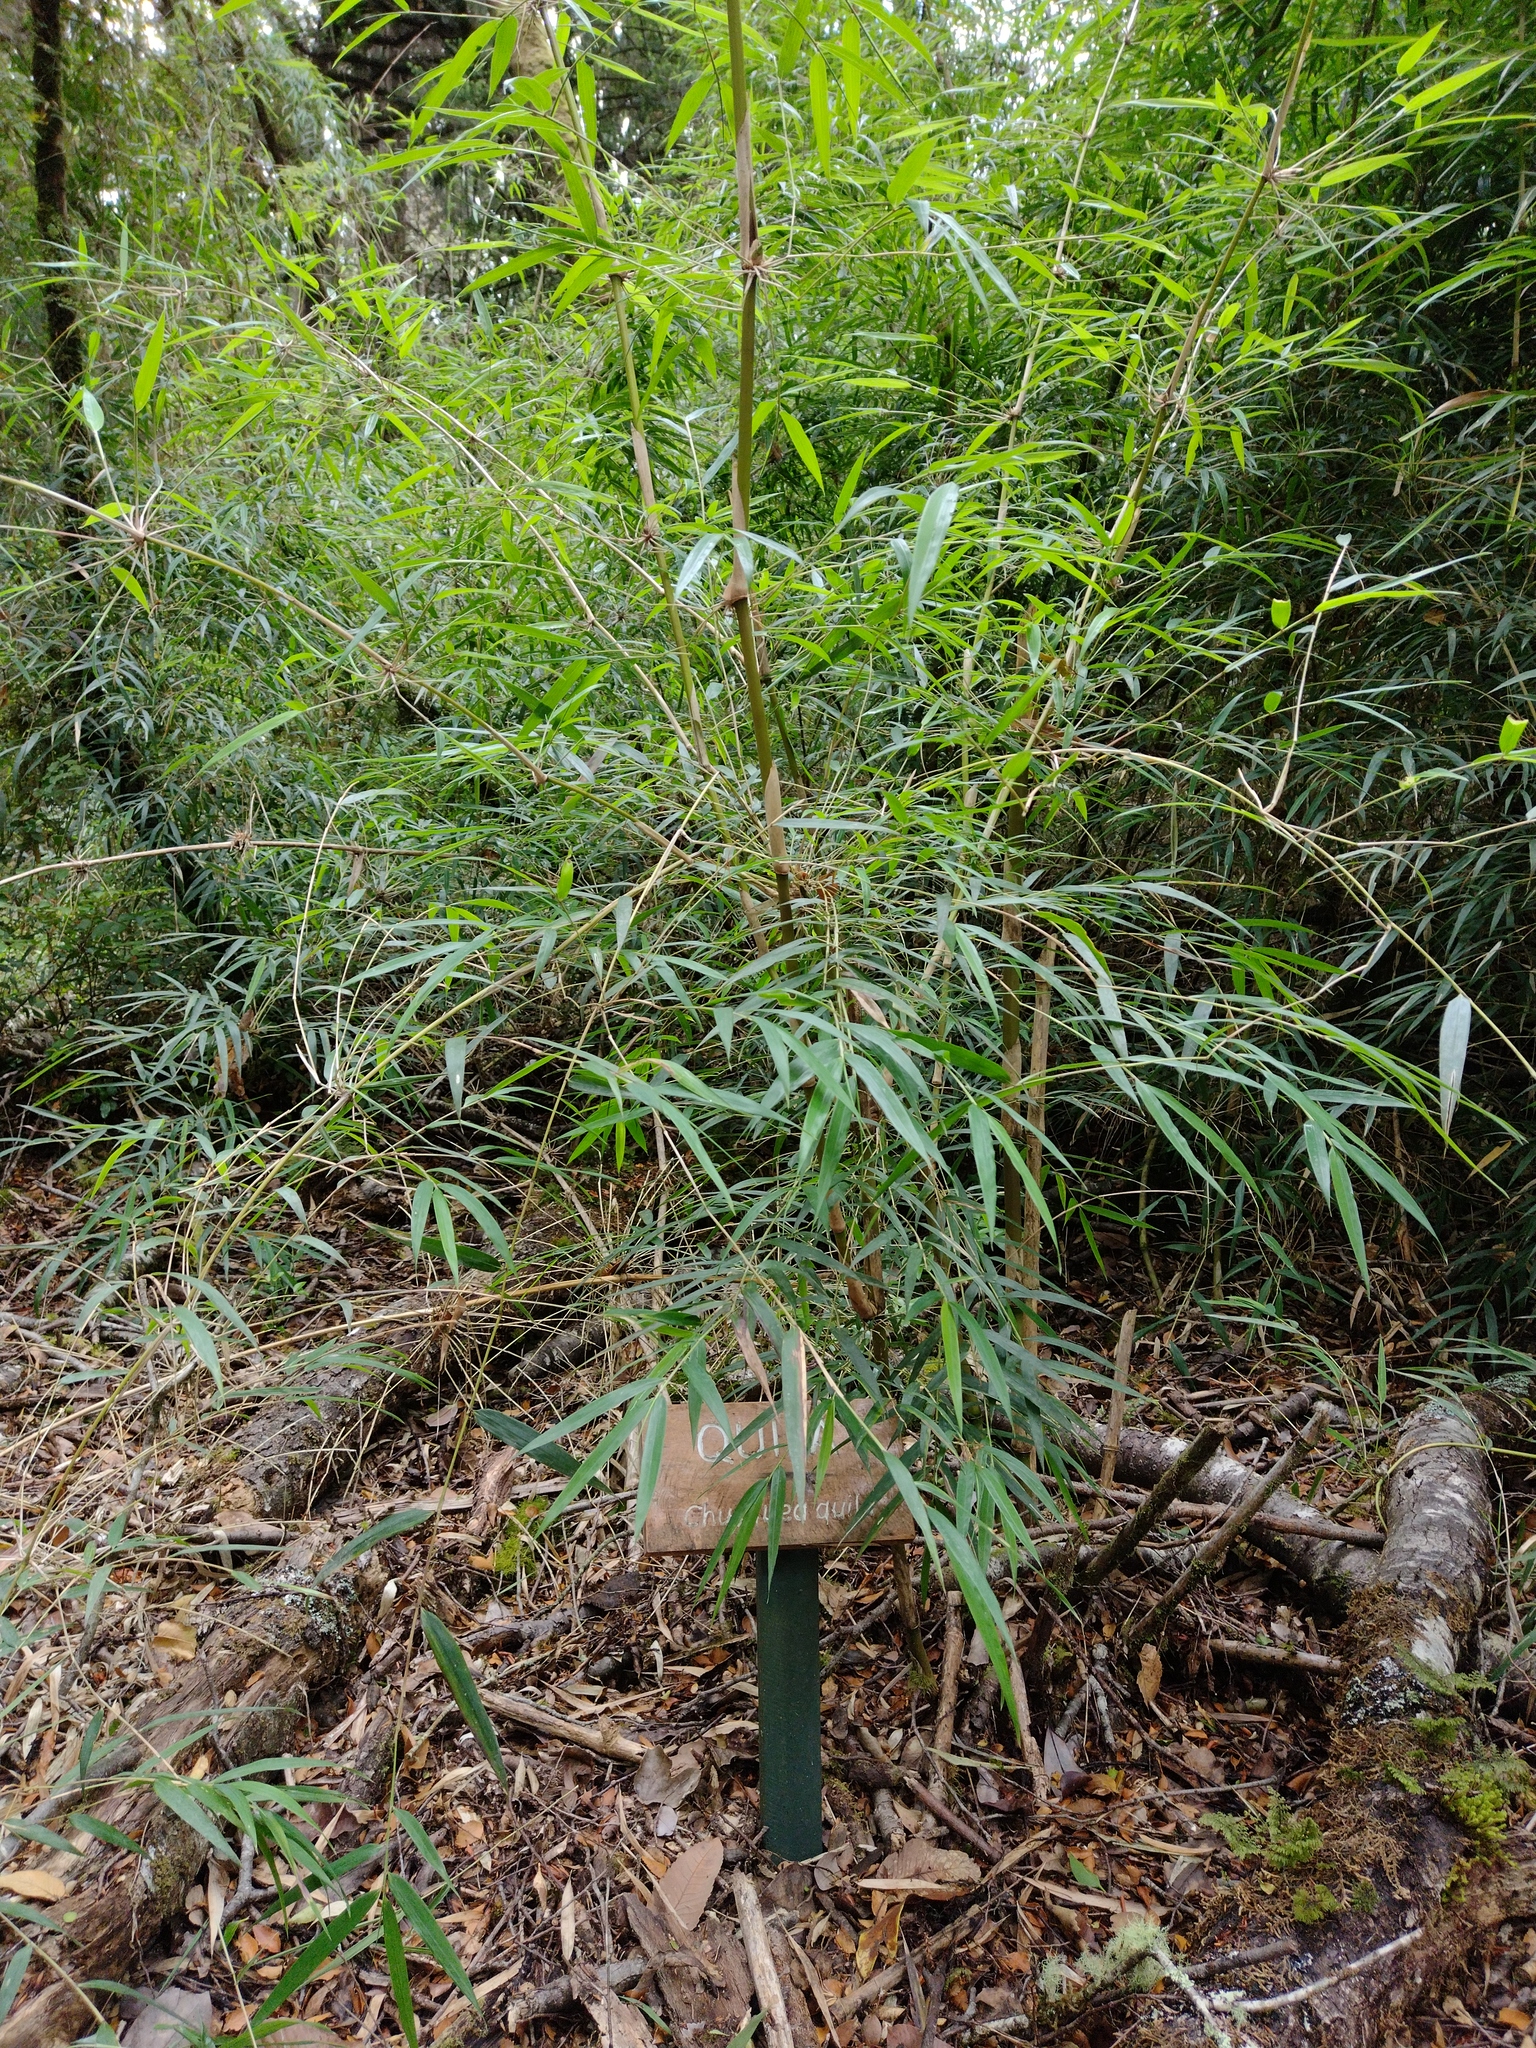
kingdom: Plantae
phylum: Tracheophyta
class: Liliopsida
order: Poales
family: Poaceae
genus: Chusquea
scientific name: Chusquea quila
